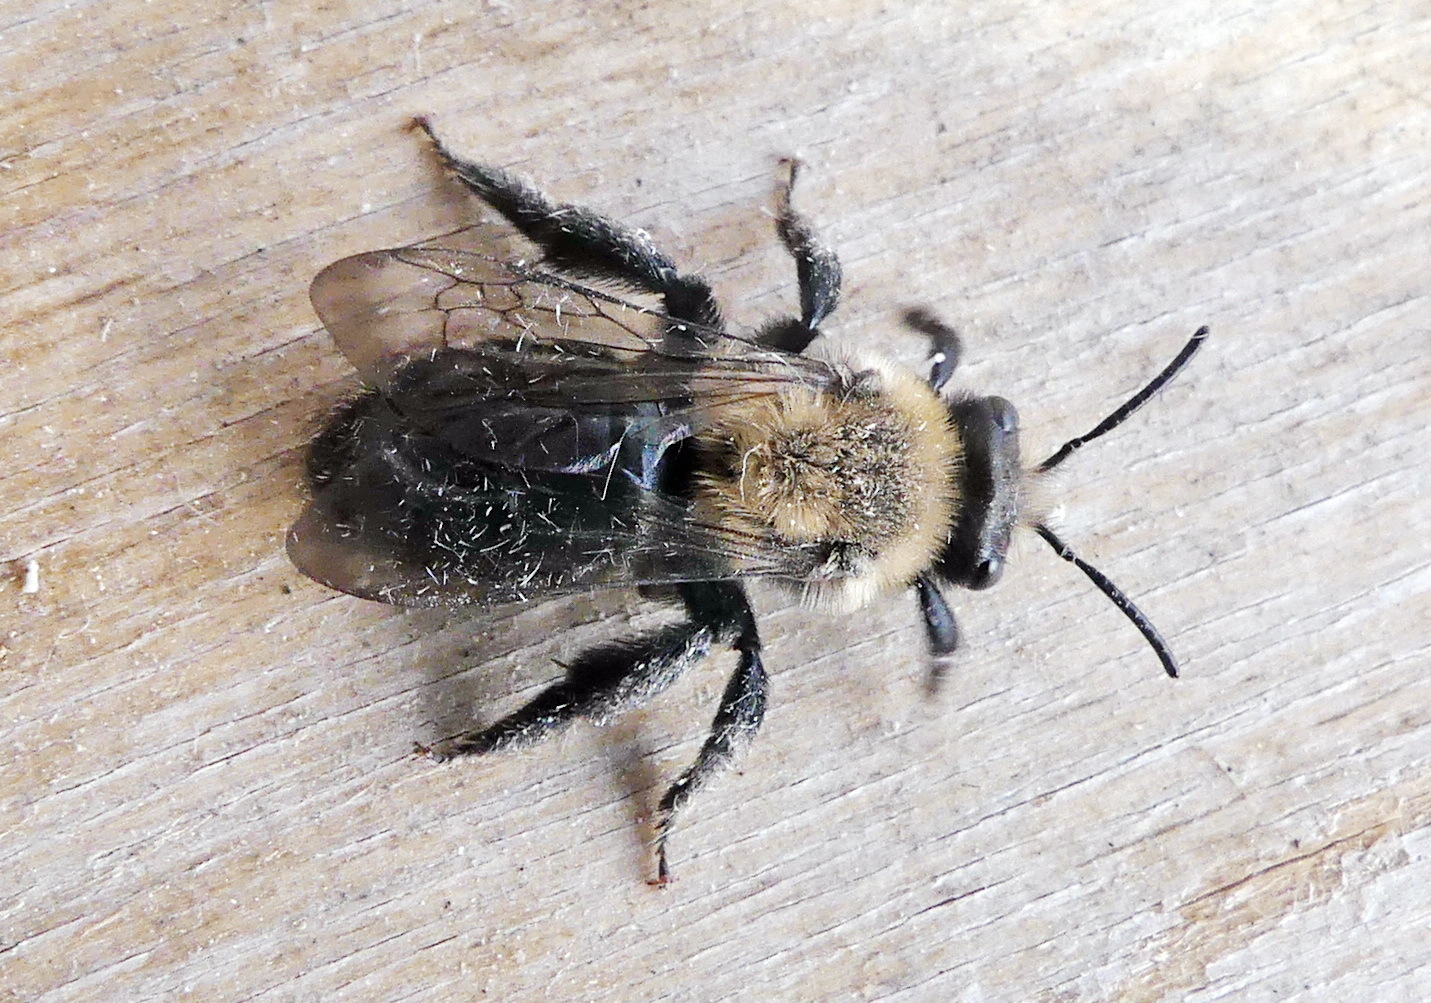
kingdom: Animalia
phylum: Arthropoda
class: Insecta
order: Hymenoptera
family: Andrenidae
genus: Andrena
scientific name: Andrena carlini
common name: Carlin's mining bee
